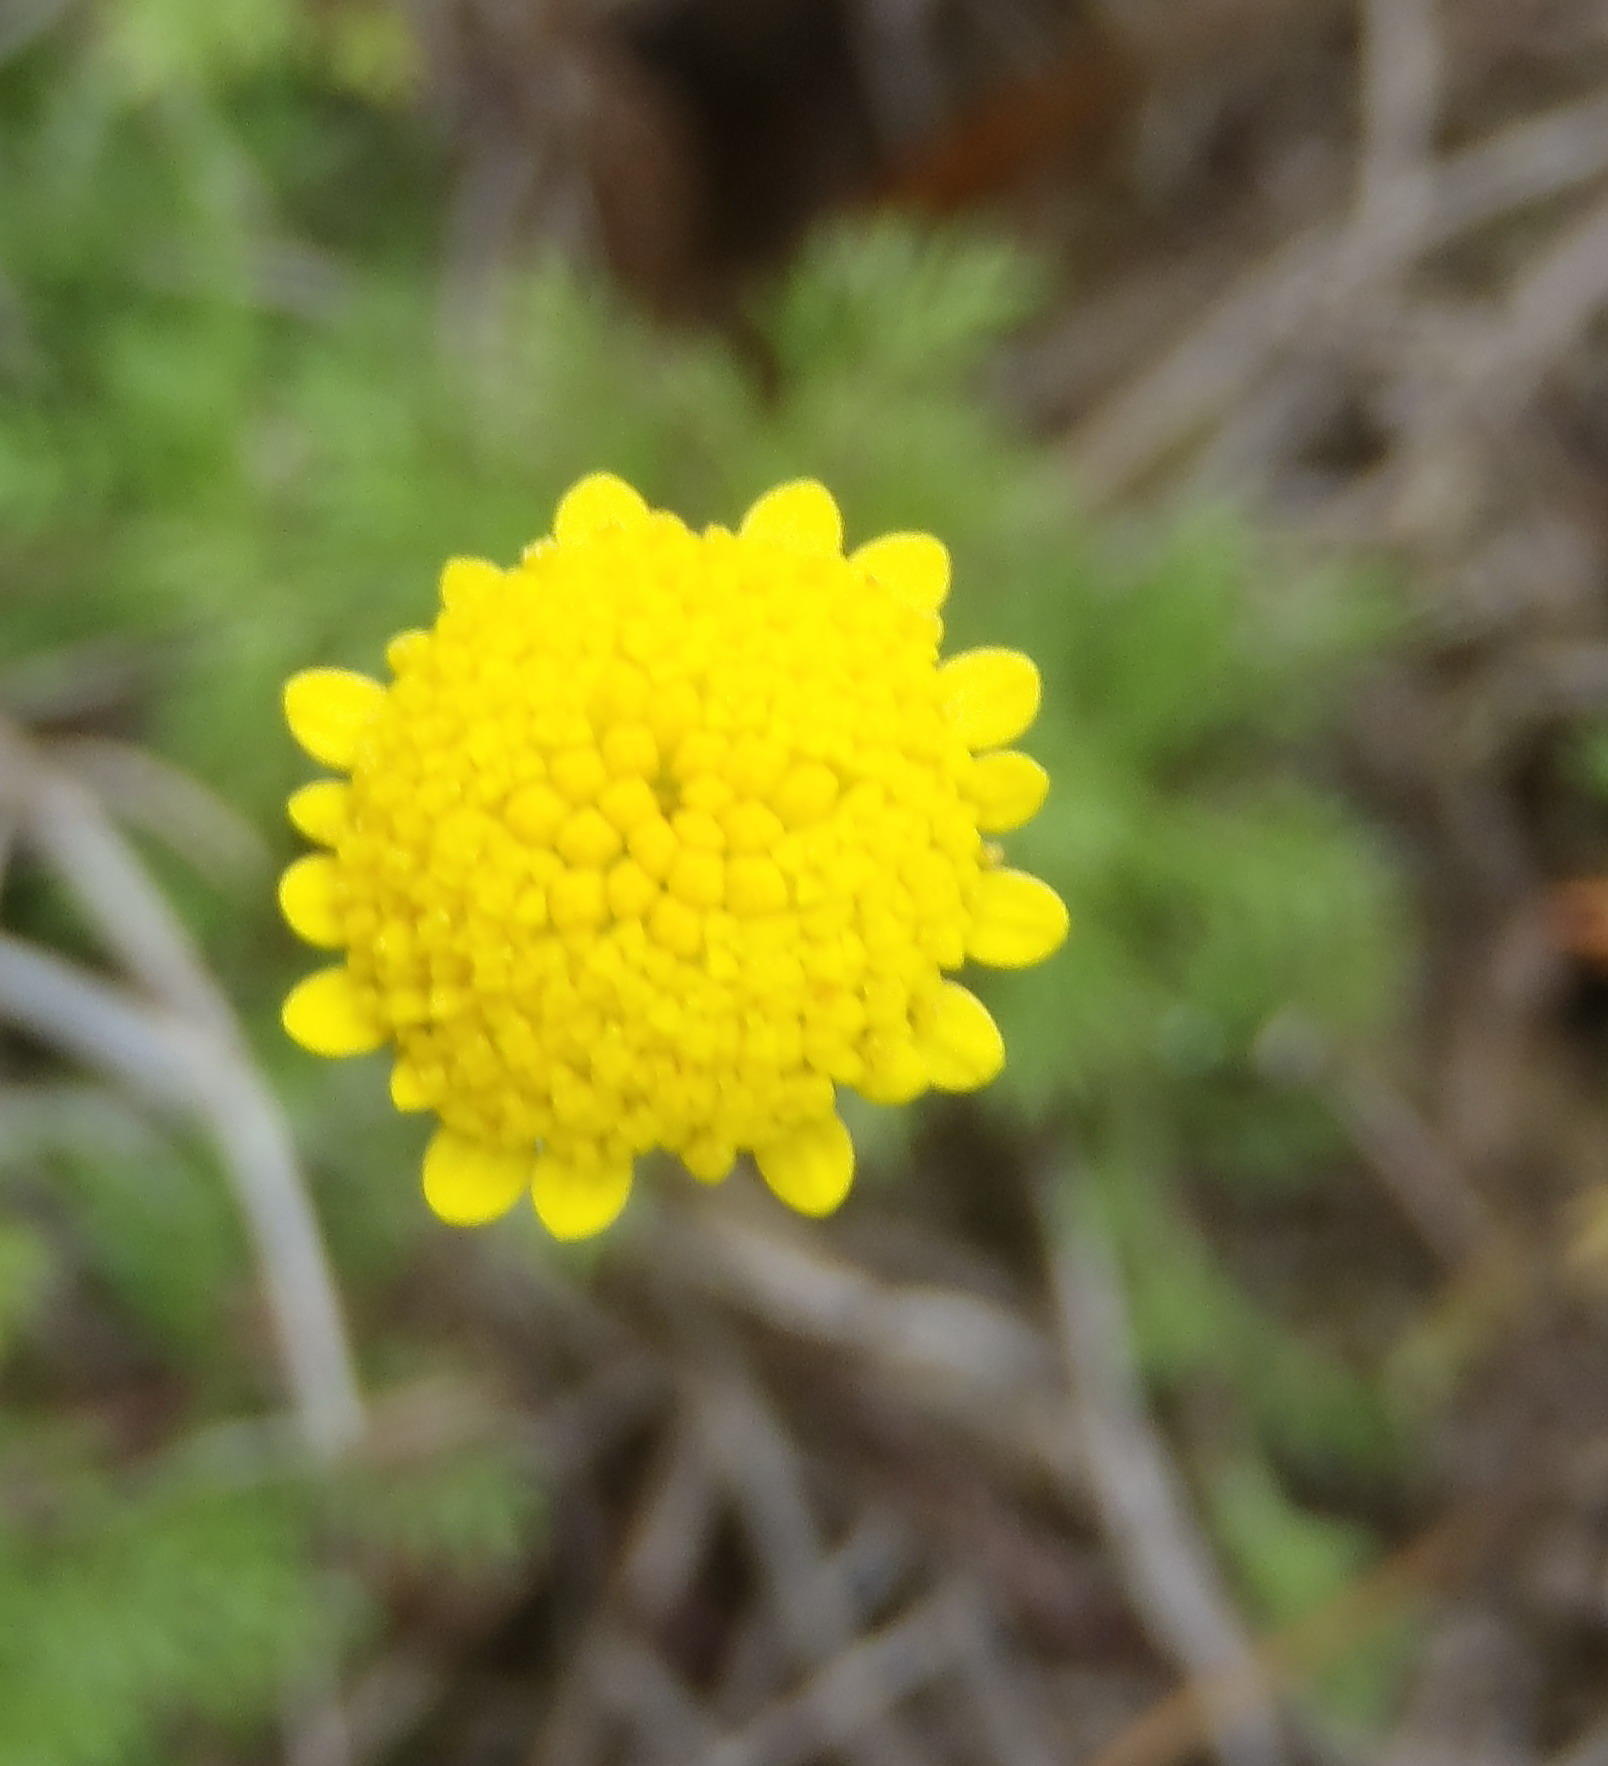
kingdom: Plantae
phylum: Tracheophyta
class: Magnoliopsida
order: Asterales
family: Asteraceae
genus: Cotula
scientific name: Cotula discolor
